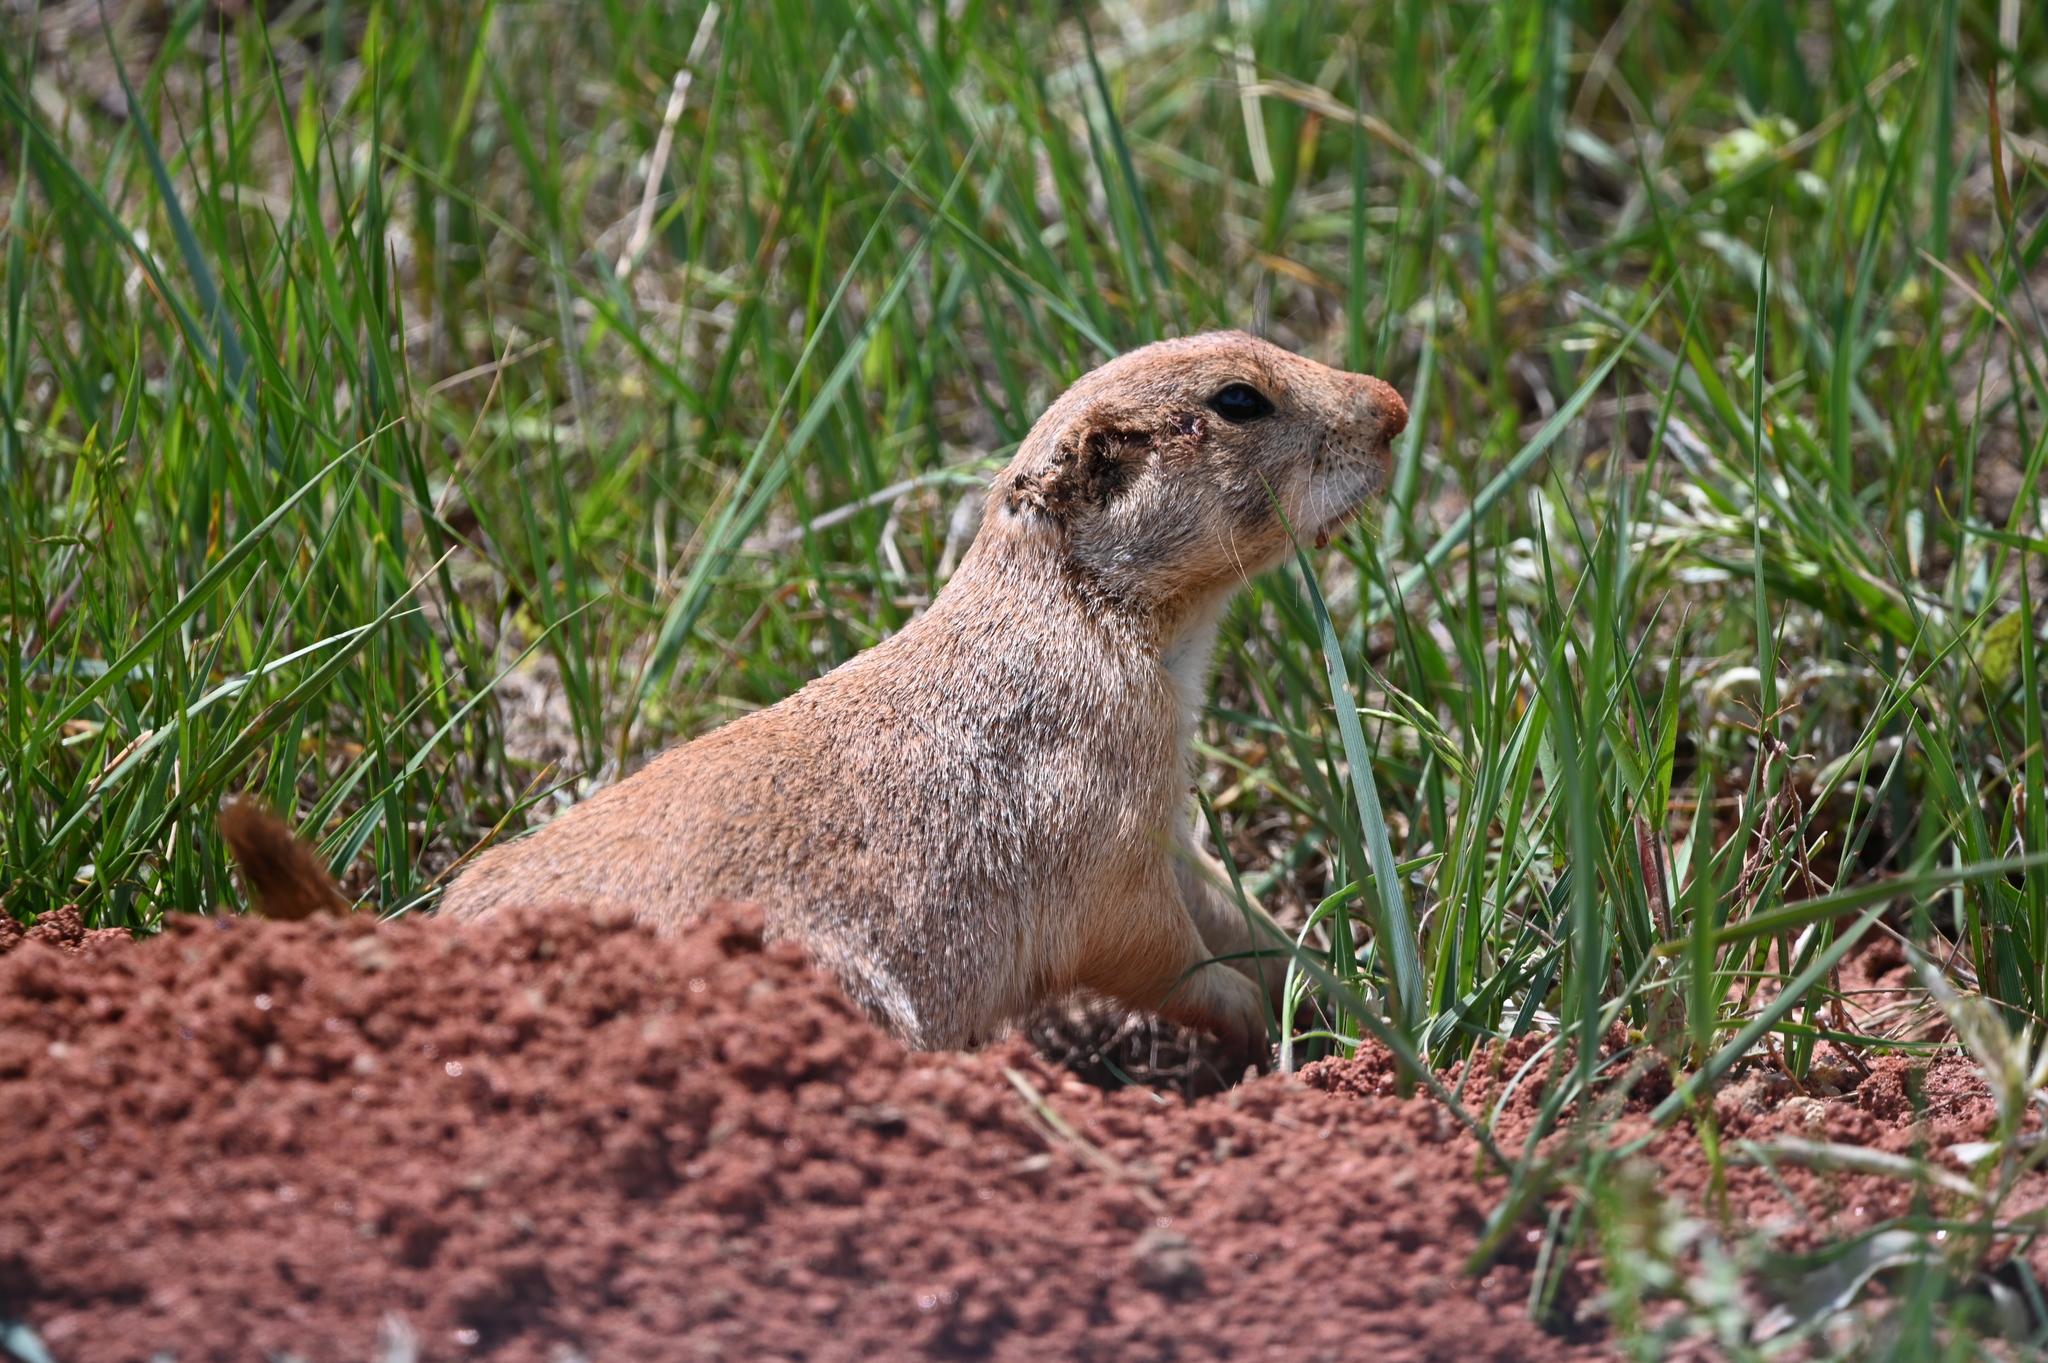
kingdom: Animalia
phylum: Chordata
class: Mammalia
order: Rodentia
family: Sciuridae
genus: Cynomys
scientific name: Cynomys ludovicianus
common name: Black-tailed prairie dog
